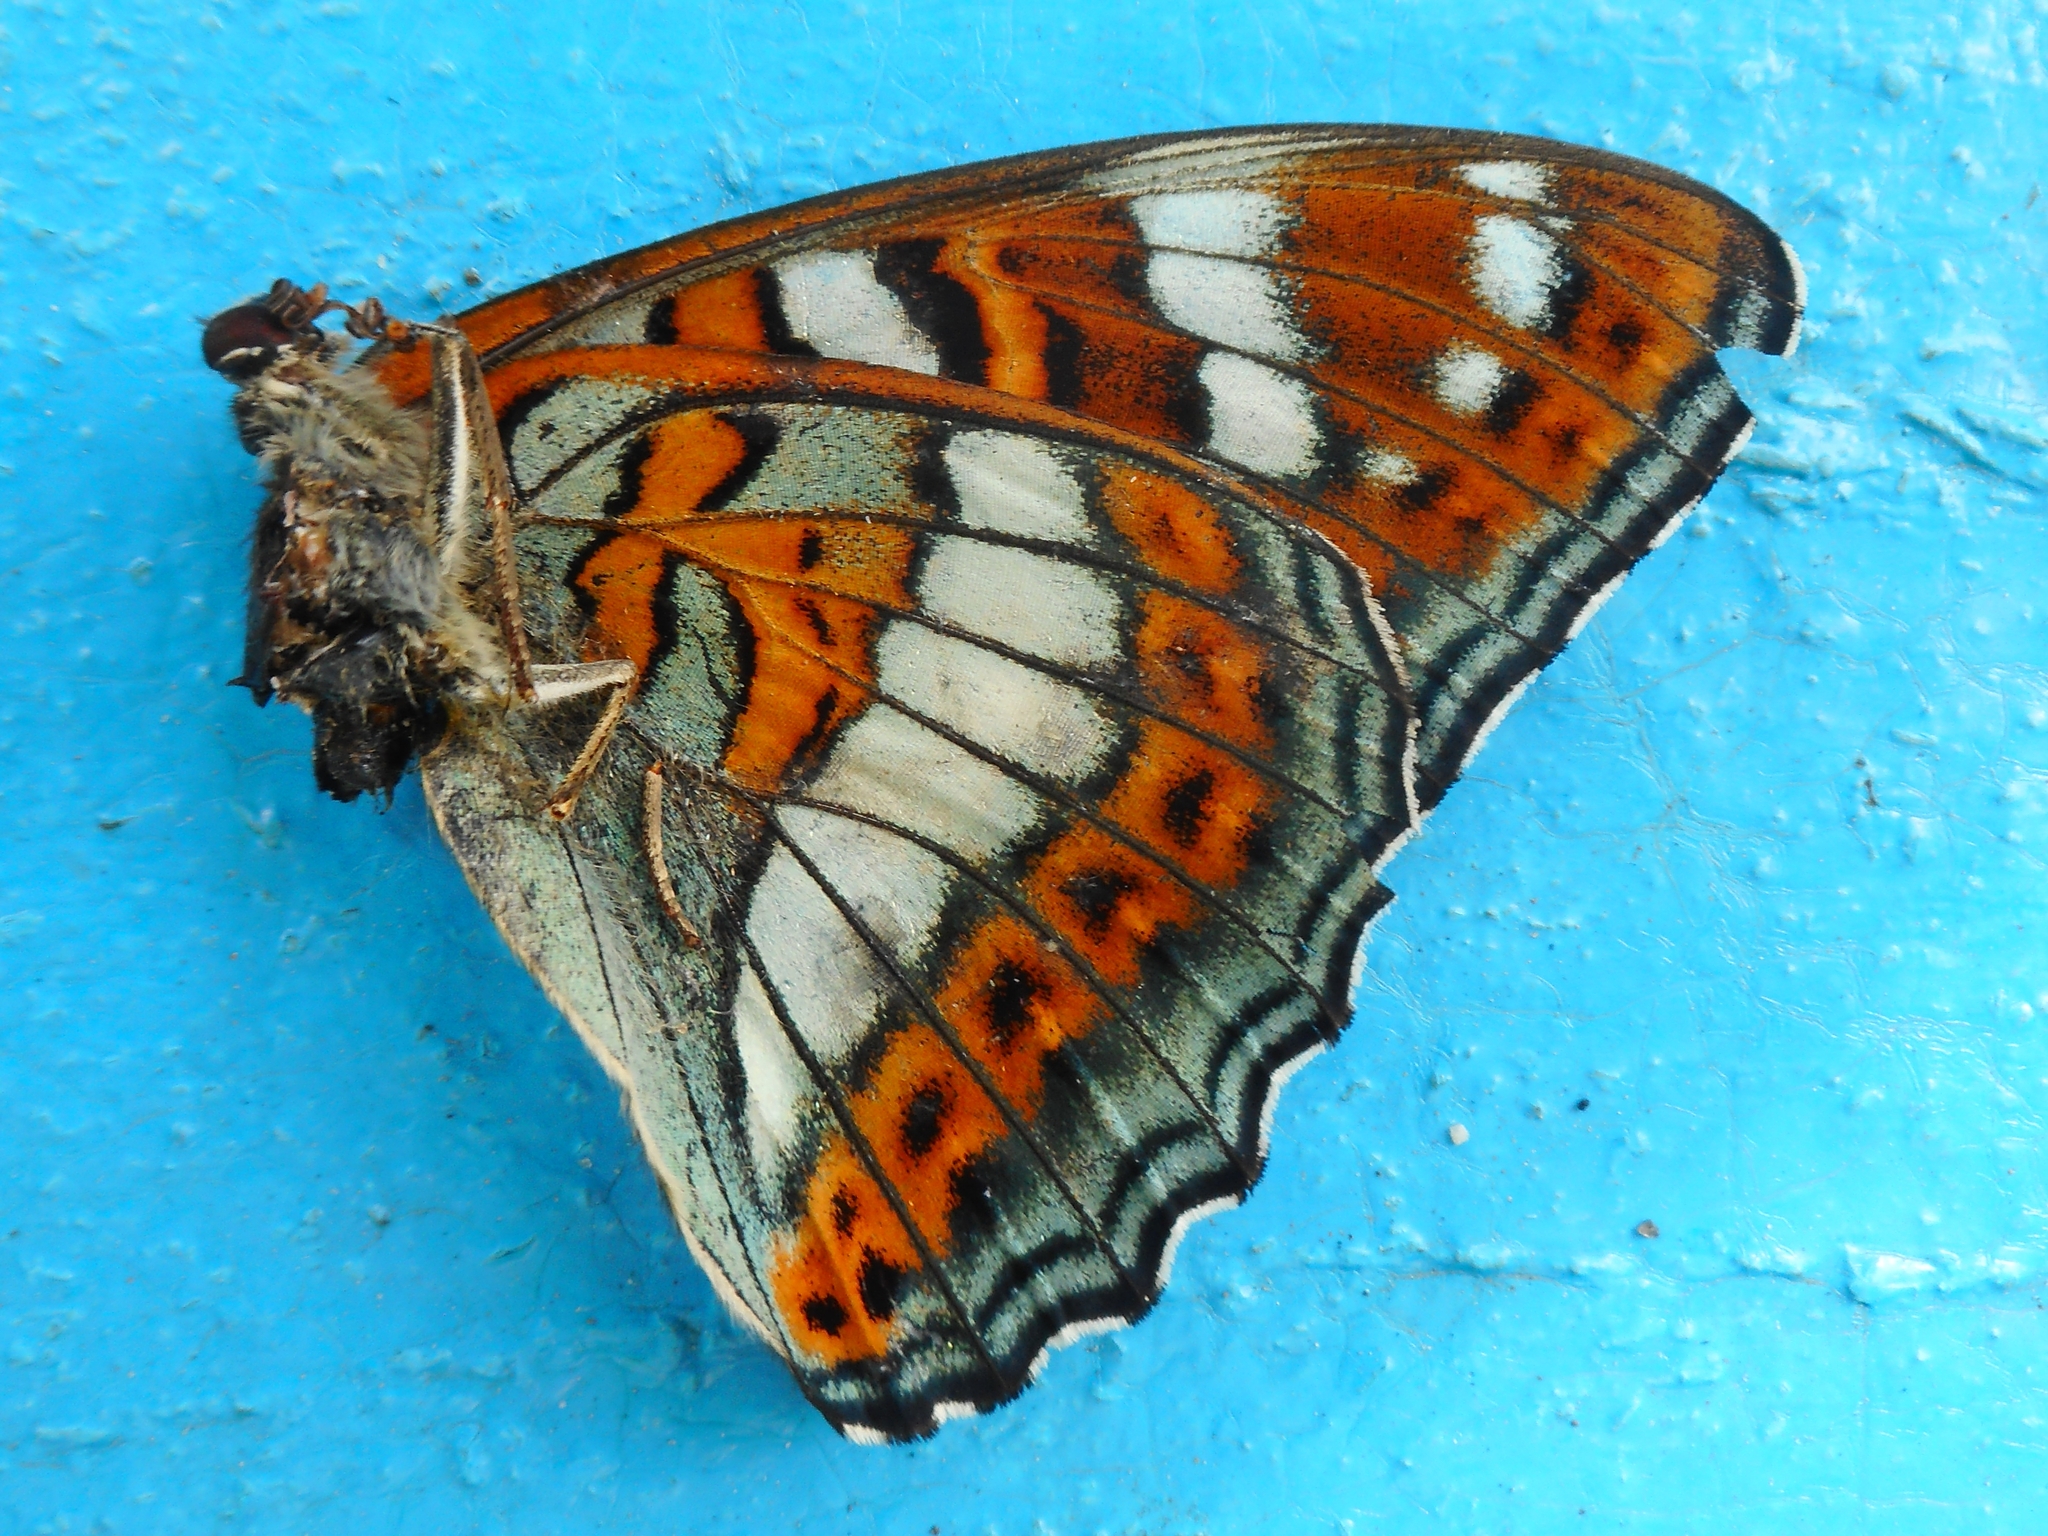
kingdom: Animalia
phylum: Arthropoda
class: Insecta
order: Lepidoptera
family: Nymphalidae
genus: Limenitis
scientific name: Limenitis populi
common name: Poplar admiral
